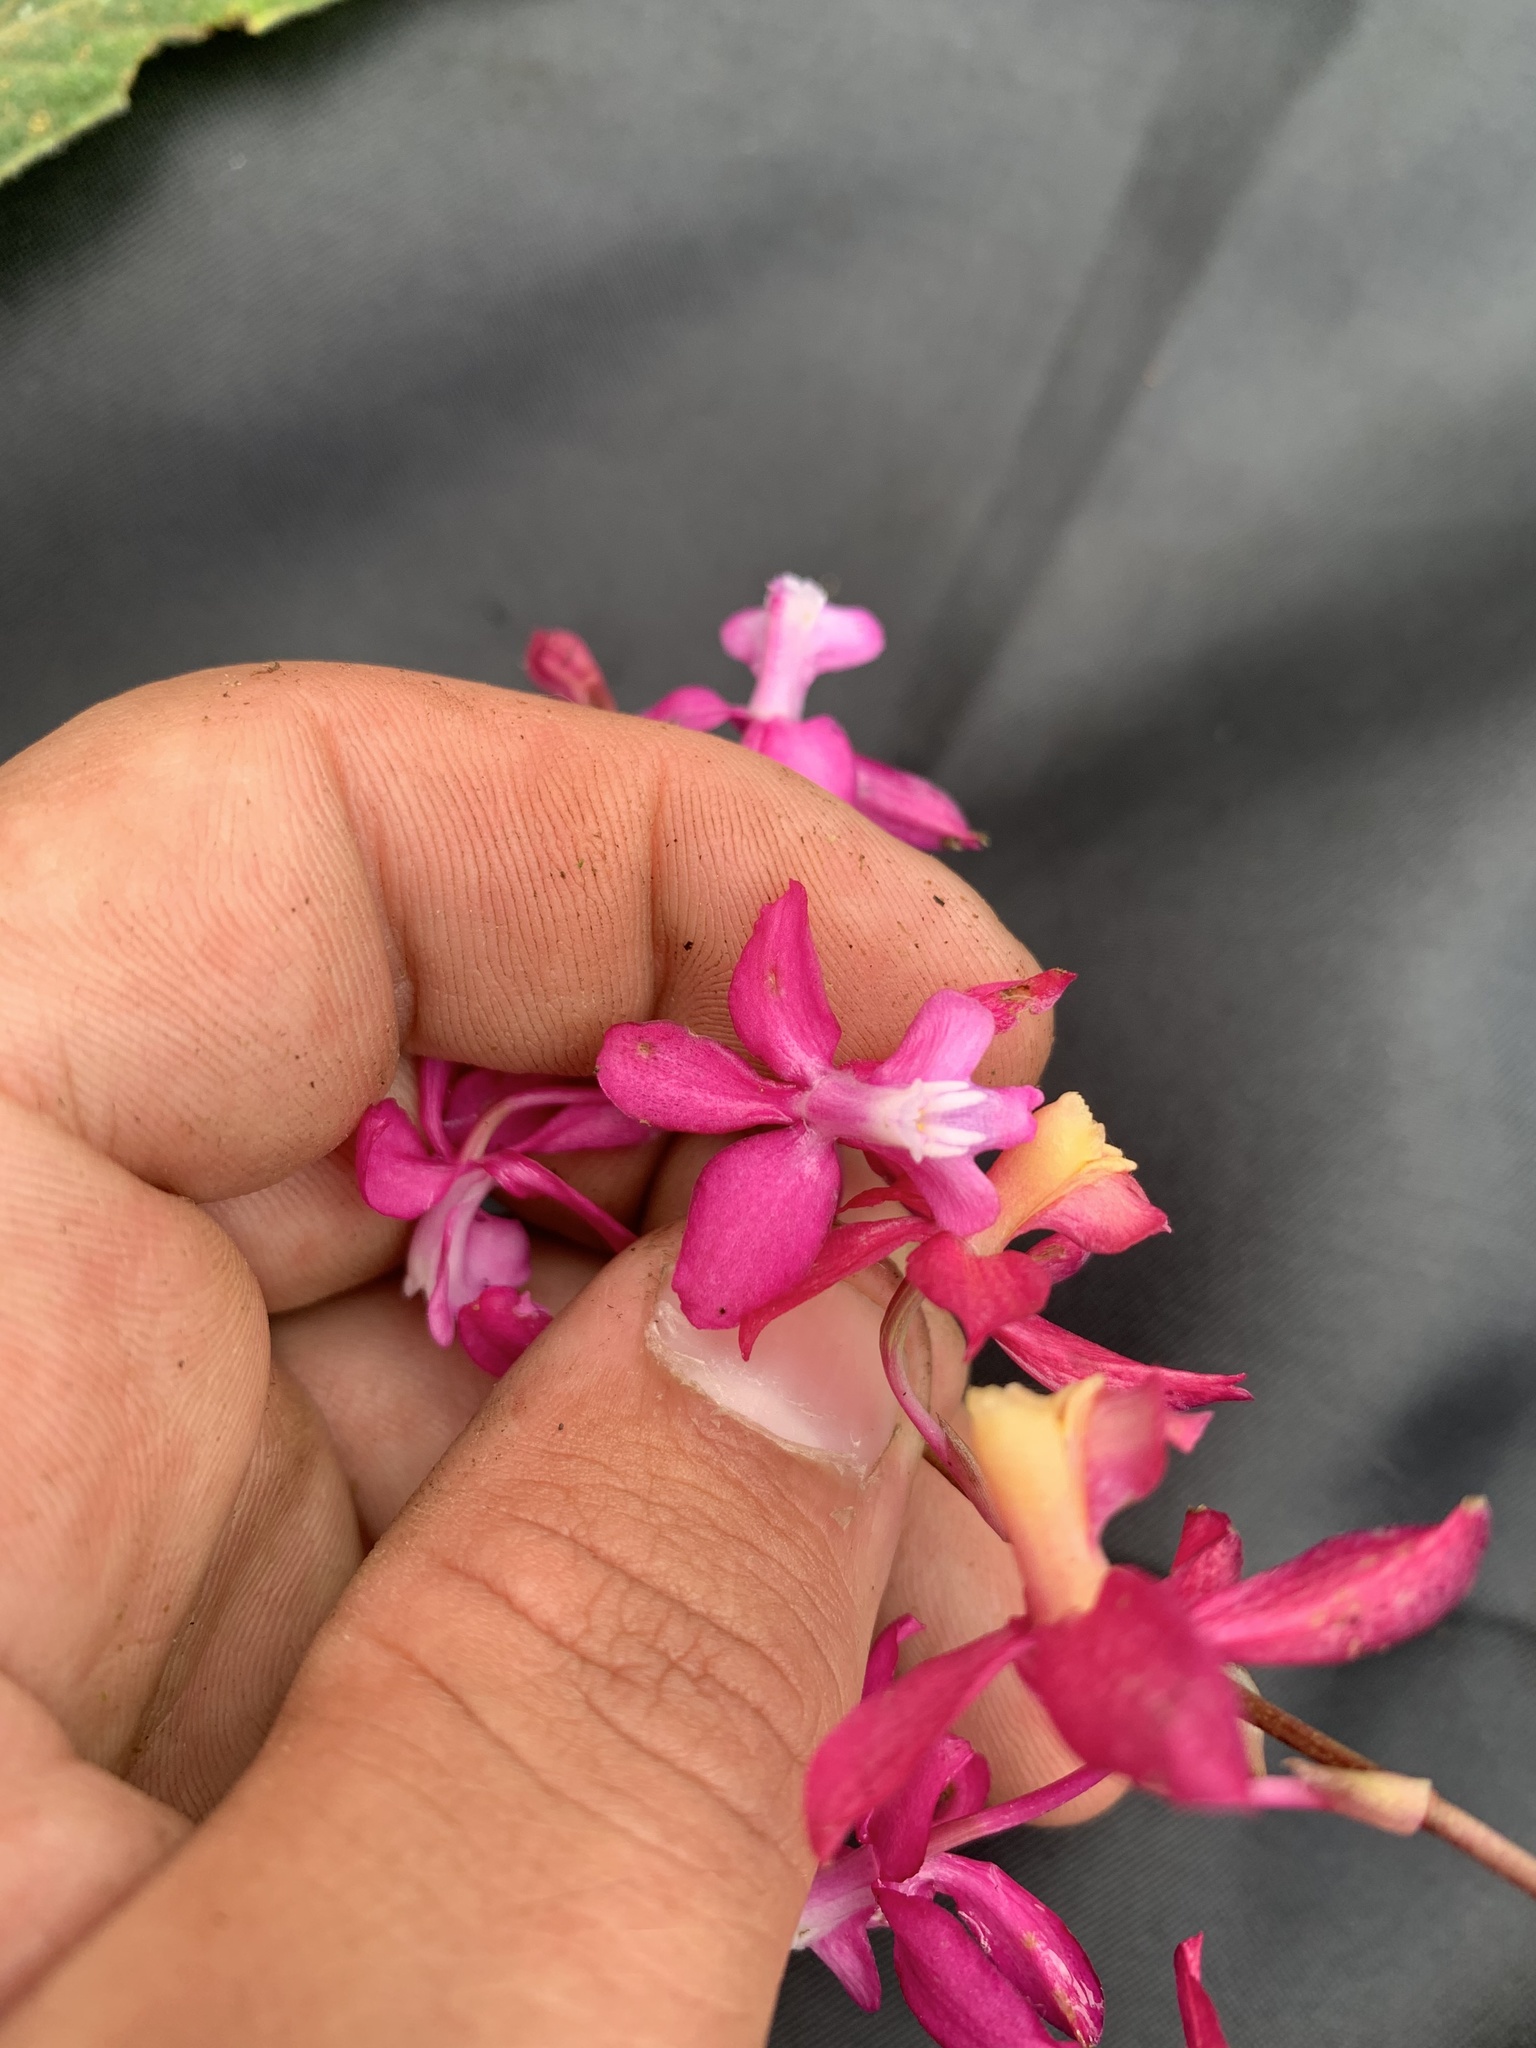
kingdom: Plantae
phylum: Tracheophyta
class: Liliopsida
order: Asparagales
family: Orchidaceae
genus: Oncidium
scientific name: Oncidium vulcanicum
